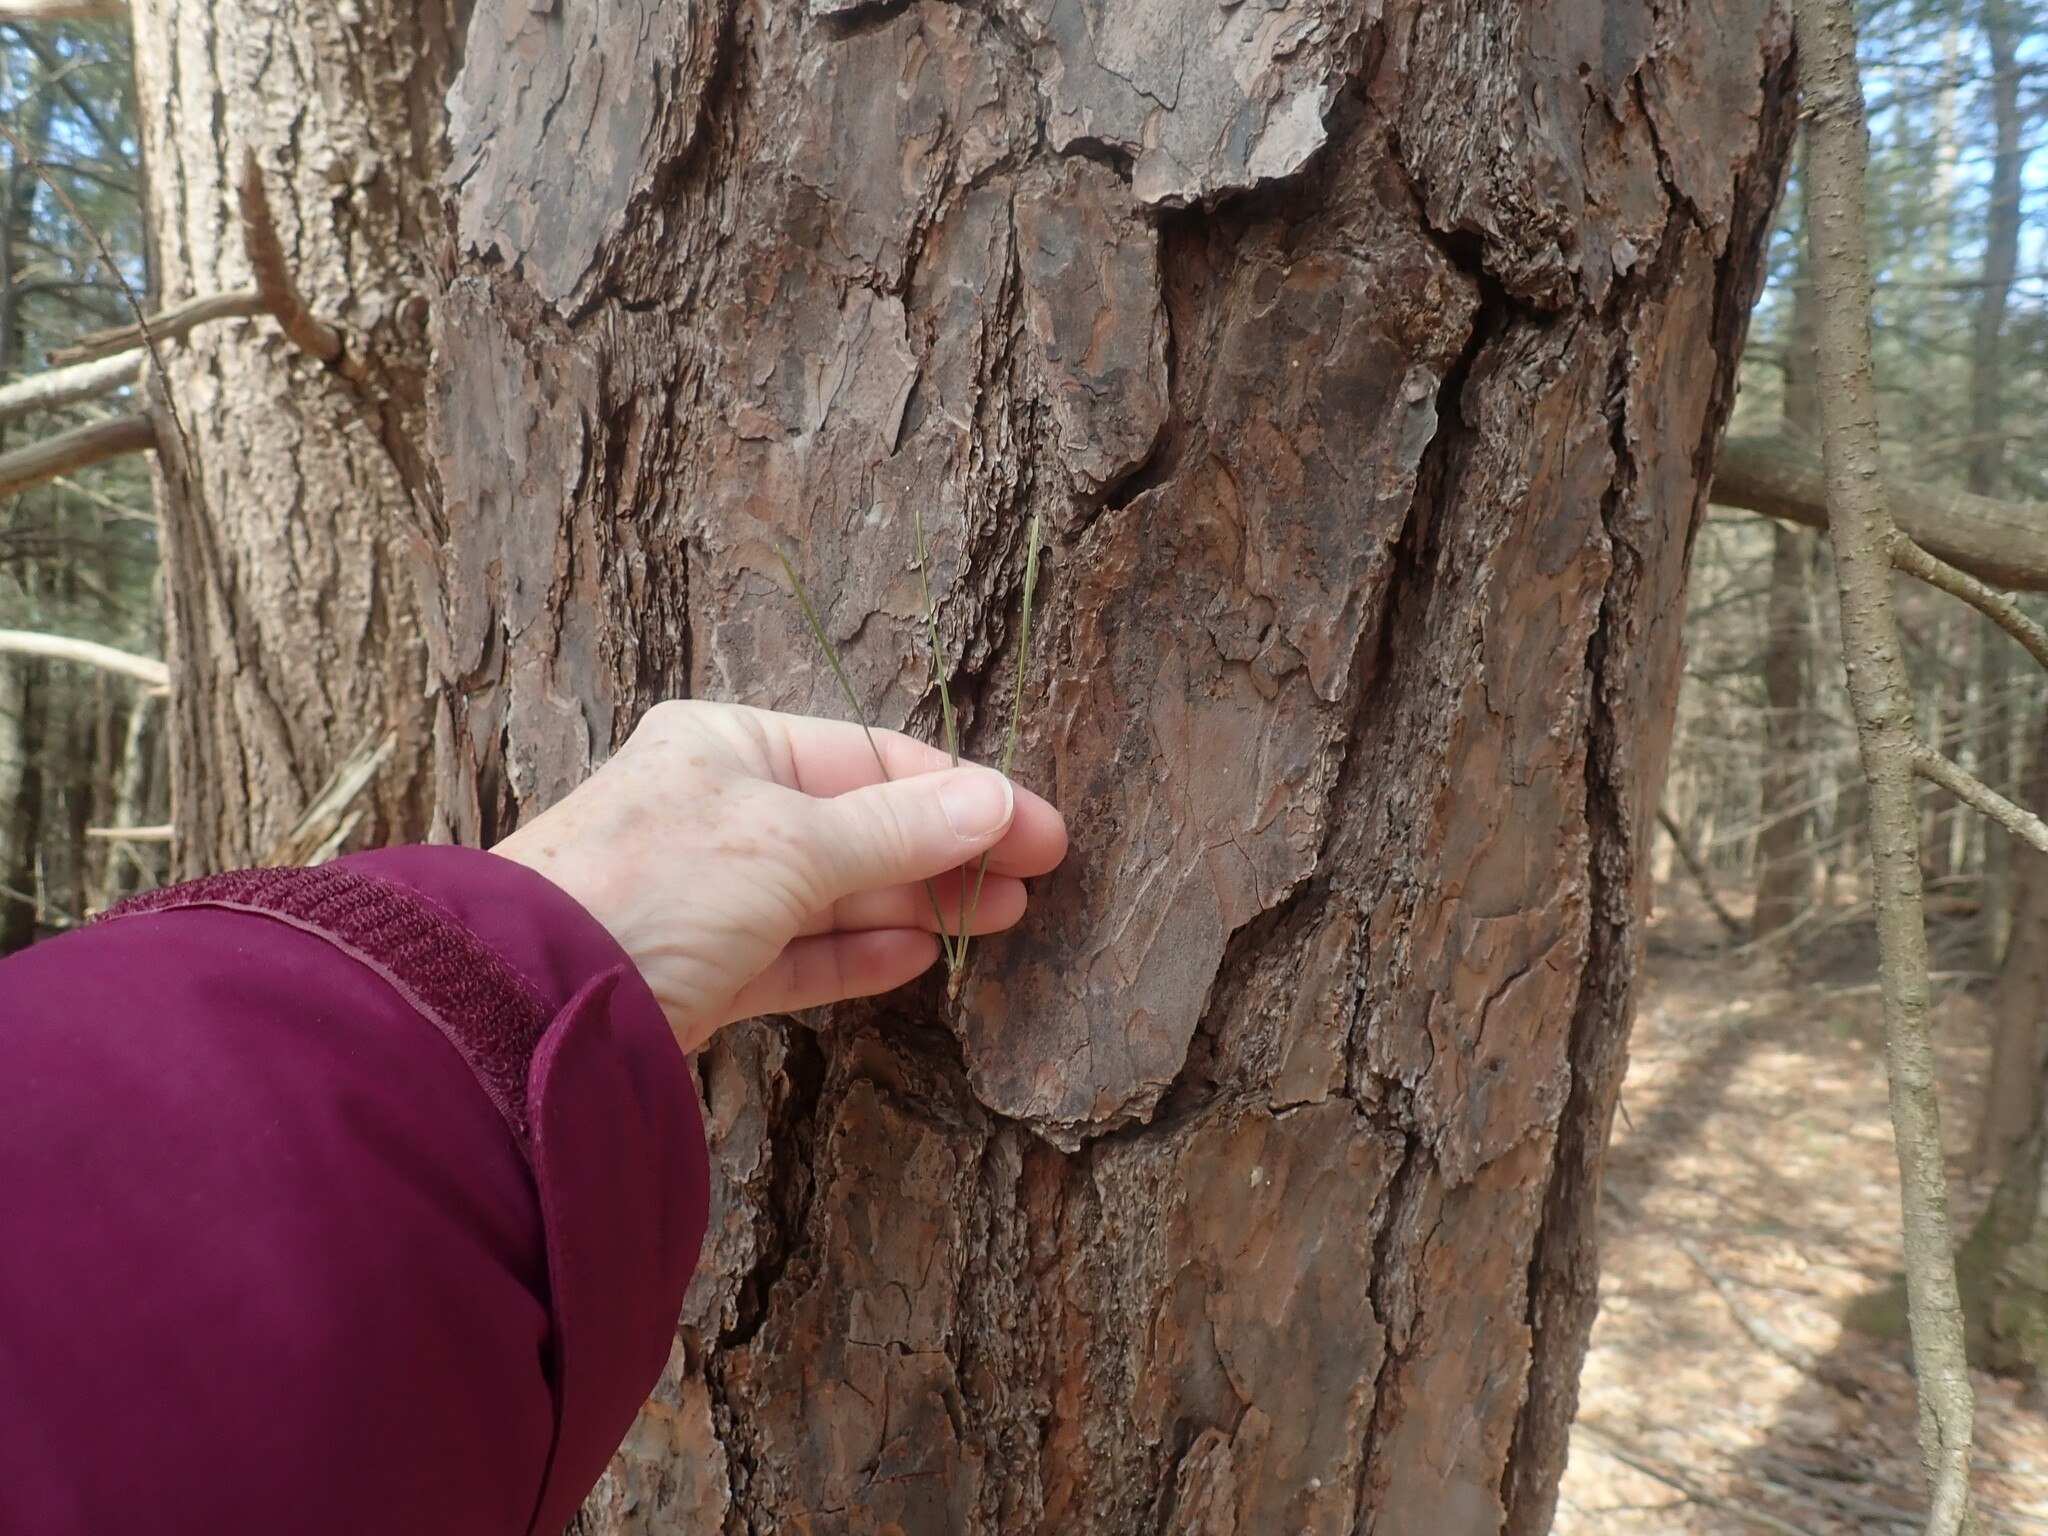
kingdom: Plantae
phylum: Tracheophyta
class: Pinopsida
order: Pinales
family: Pinaceae
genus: Pinus
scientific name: Pinus rigida
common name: Pitch pine
